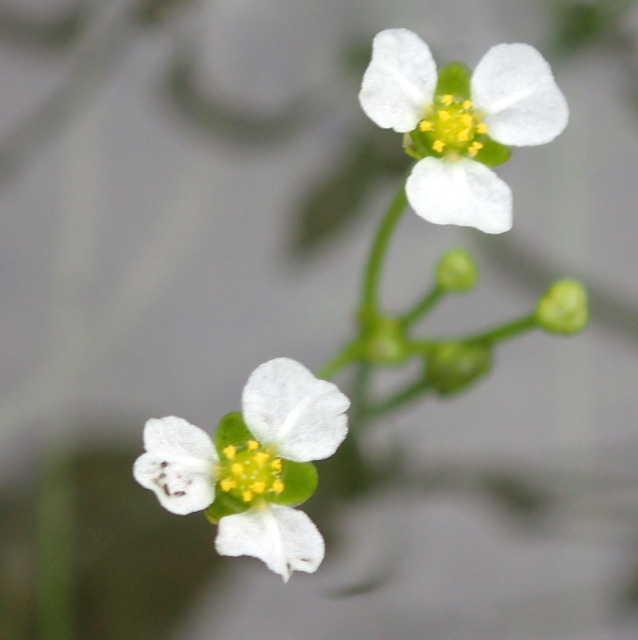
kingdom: Plantae
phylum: Tracheophyta
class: Liliopsida
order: Alismatales
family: Alismataceae
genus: Helanthium
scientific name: Helanthium tenellum
